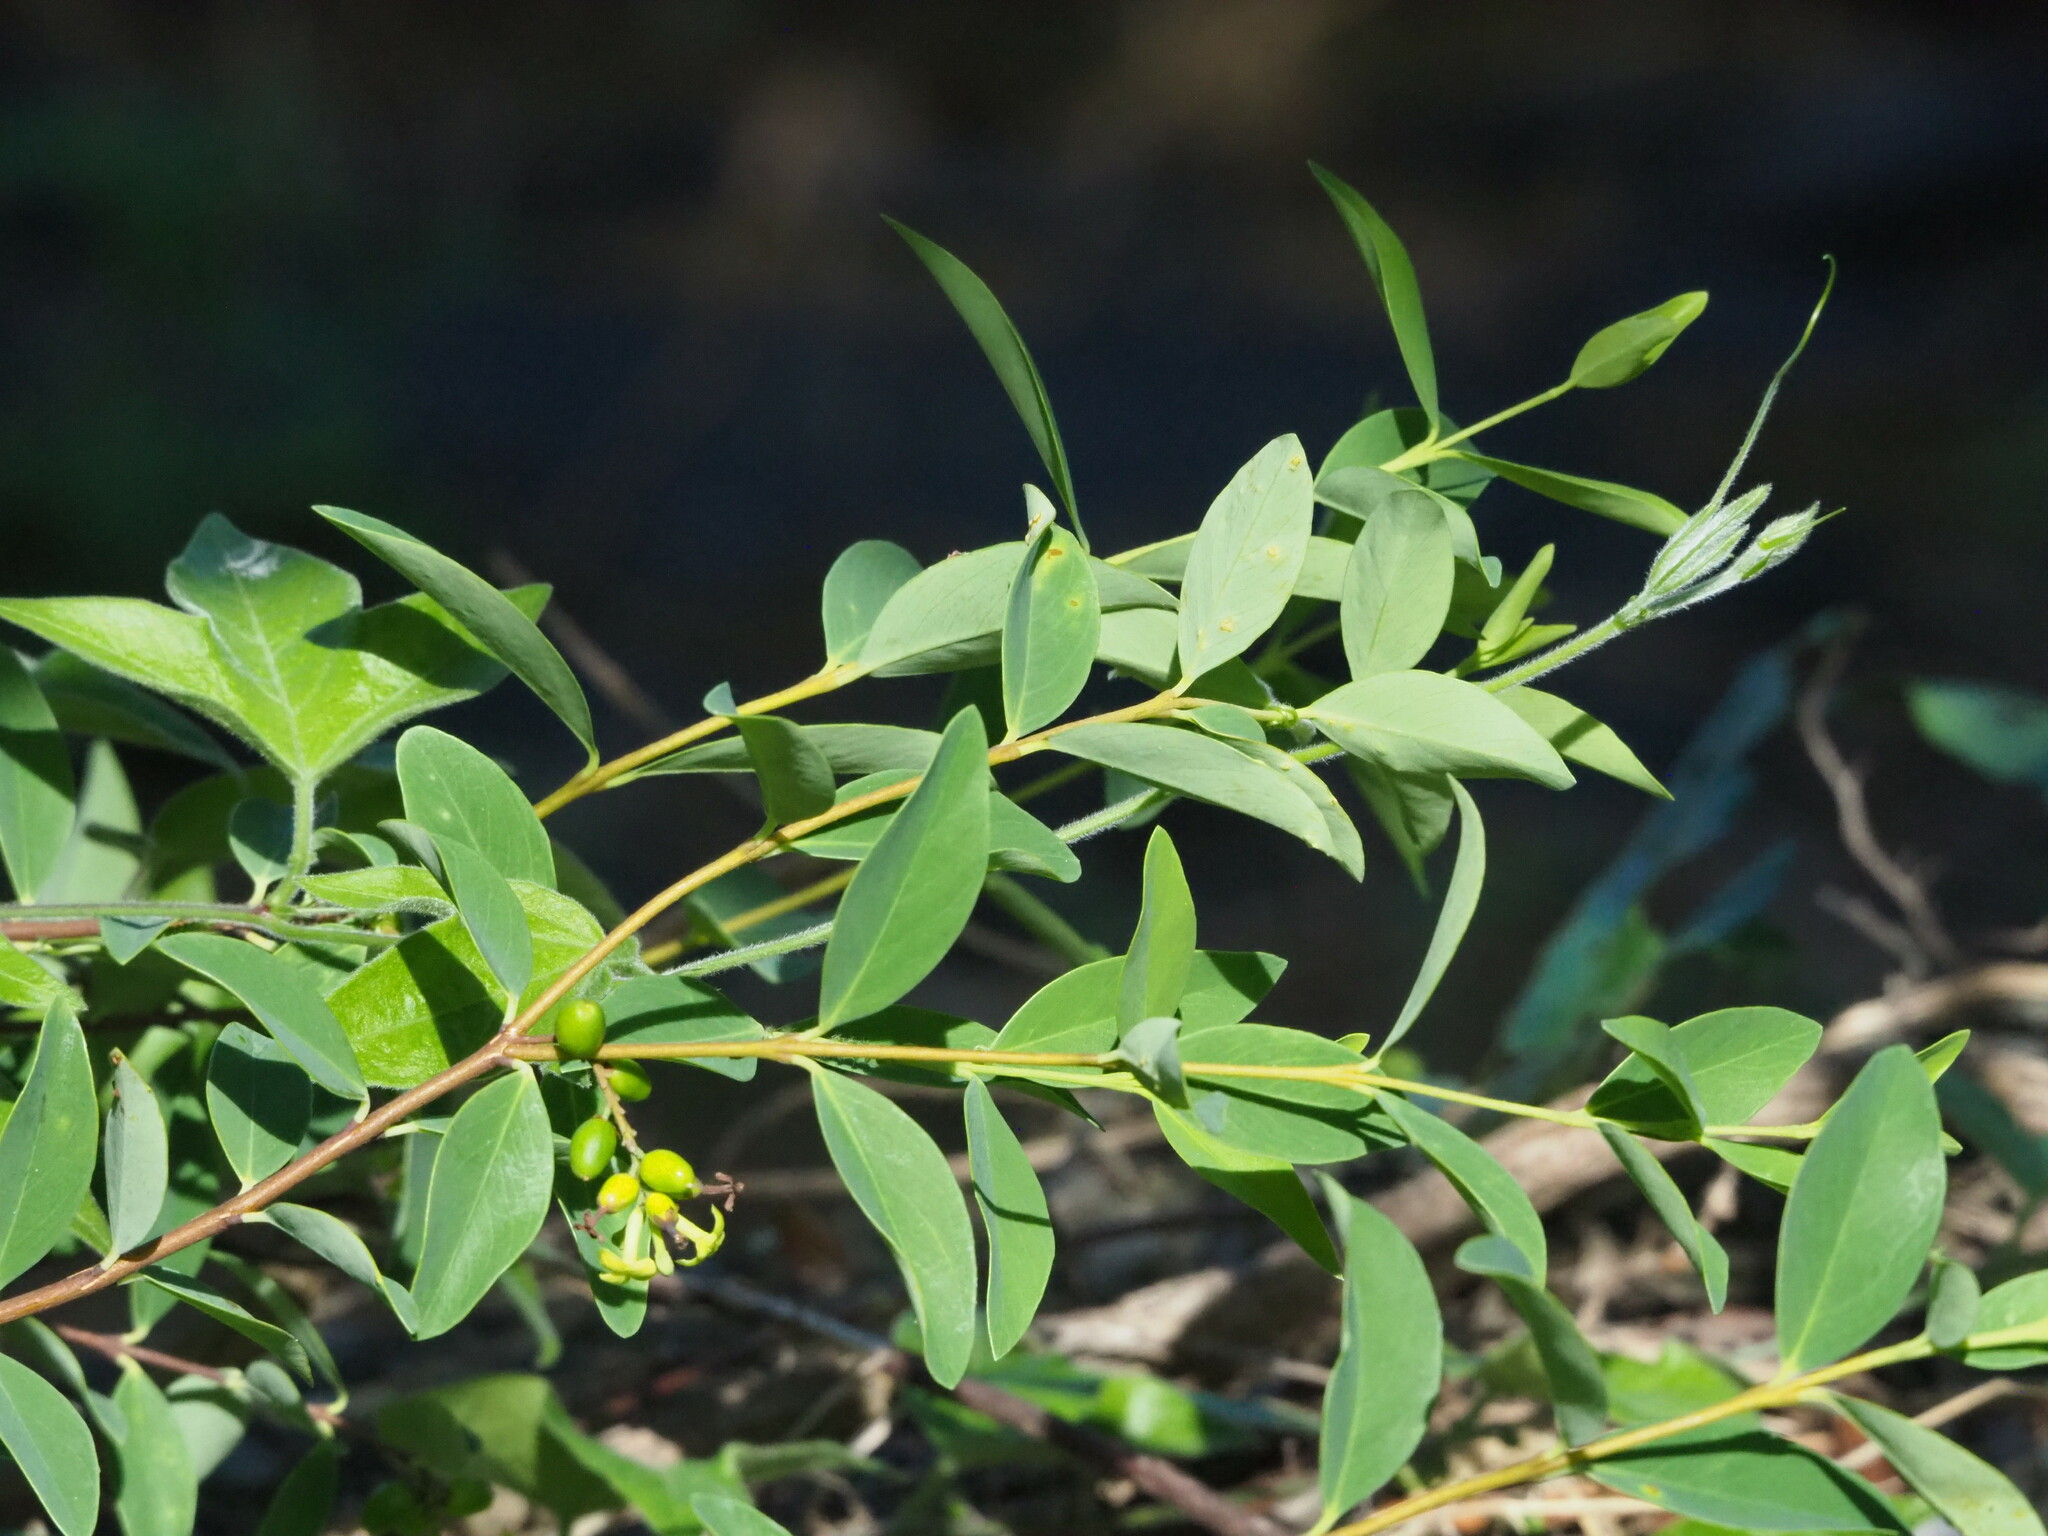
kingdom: Plantae
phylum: Tracheophyta
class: Magnoliopsida
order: Malvales
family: Thymelaeaceae
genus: Wikstroemia
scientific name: Wikstroemia indica
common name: Tiebush
